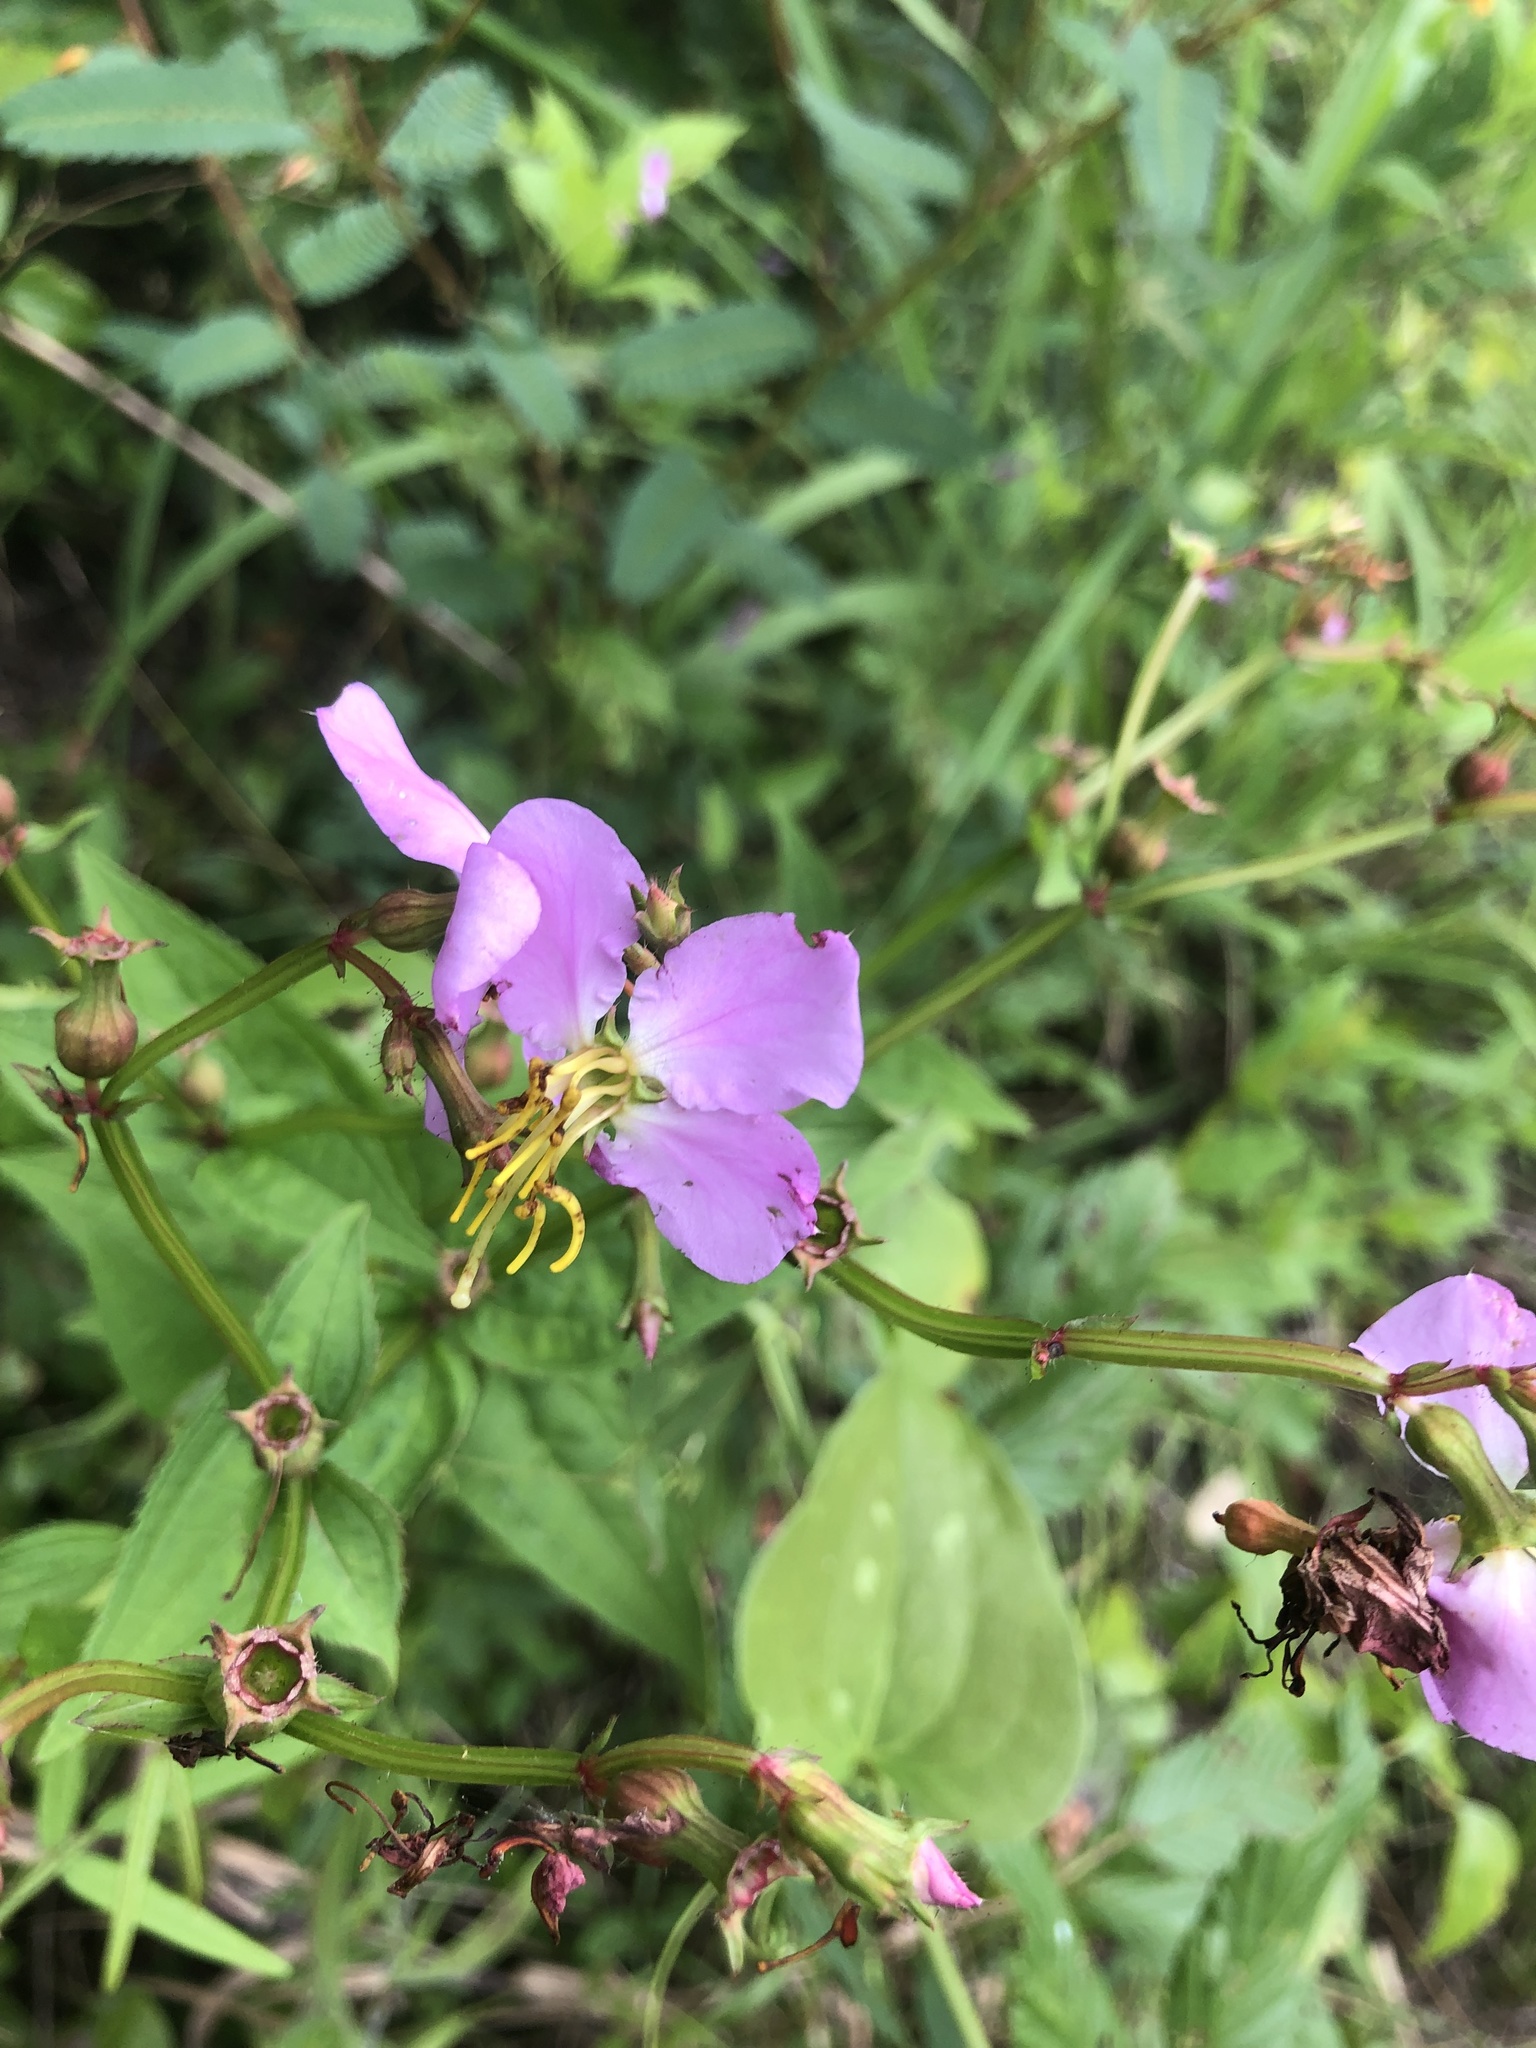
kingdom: Plantae
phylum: Tracheophyta
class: Magnoliopsida
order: Myrtales
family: Melastomataceae
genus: Rhexia
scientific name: Rhexia virginica
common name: Common meadow beauty
